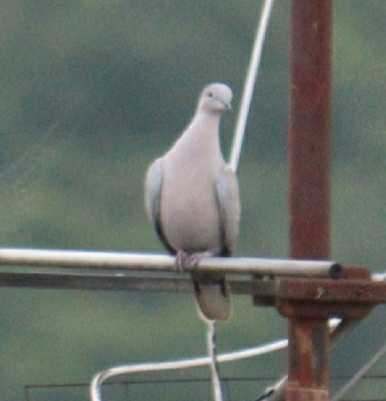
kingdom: Animalia
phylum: Chordata
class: Aves
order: Columbiformes
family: Columbidae
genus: Streptopelia
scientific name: Streptopelia decaocto
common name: Eurasian collared dove
